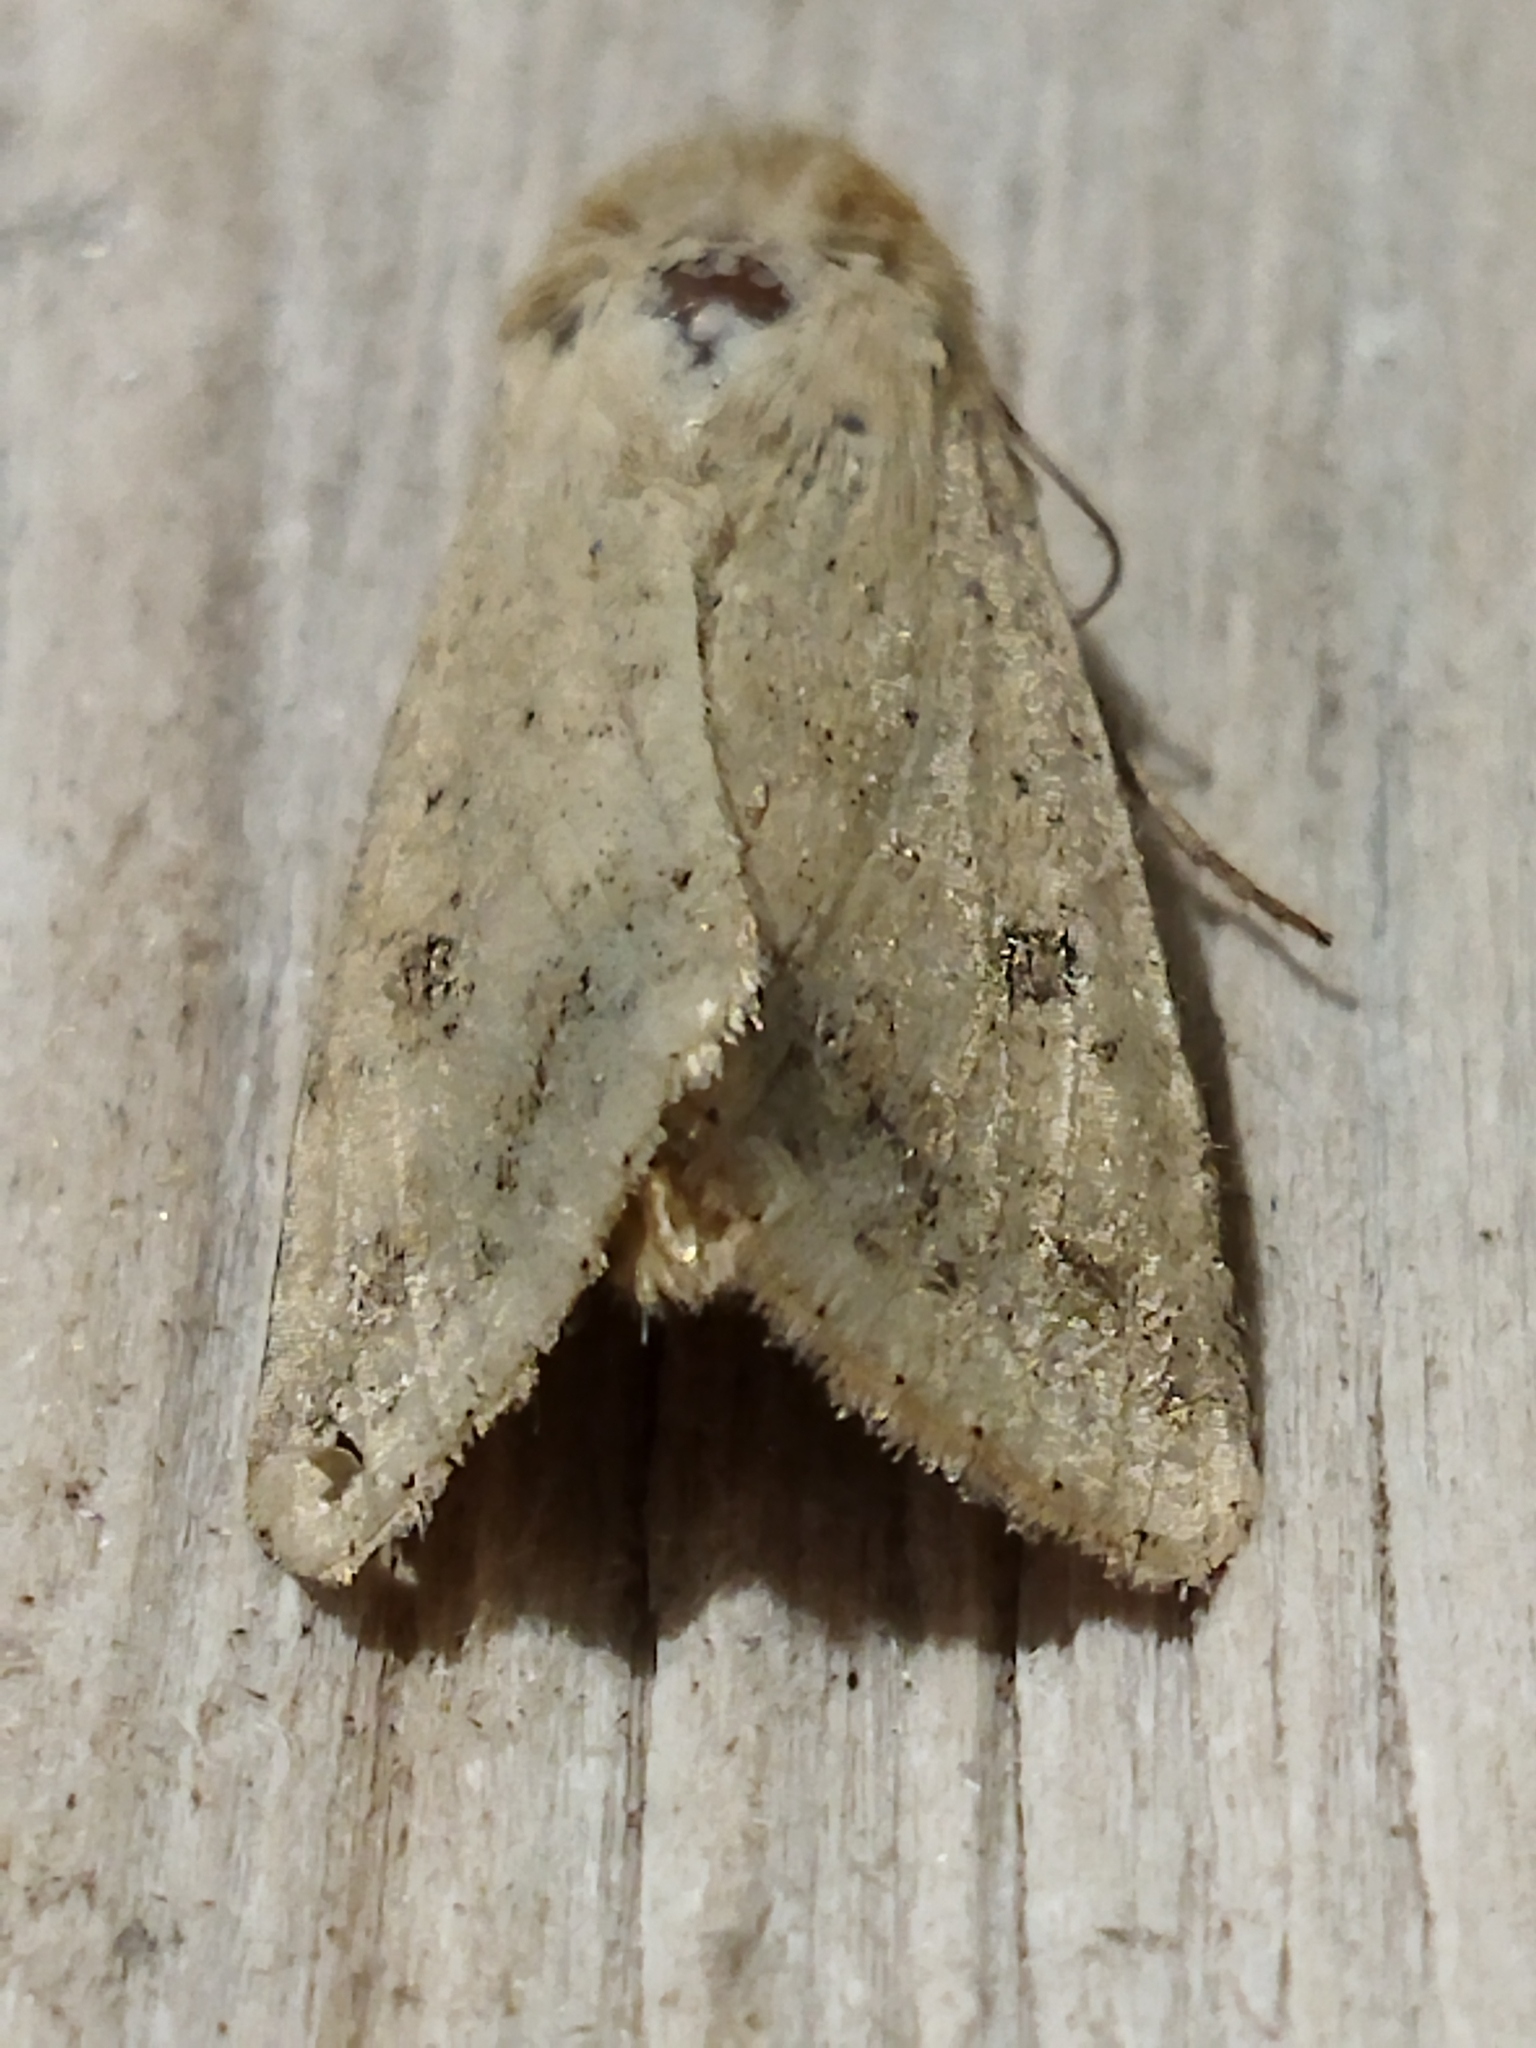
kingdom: Animalia
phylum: Arthropoda
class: Insecta
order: Lepidoptera
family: Noctuidae
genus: Helicoverpa
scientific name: Helicoverpa armigera
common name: Cotton bollworm
